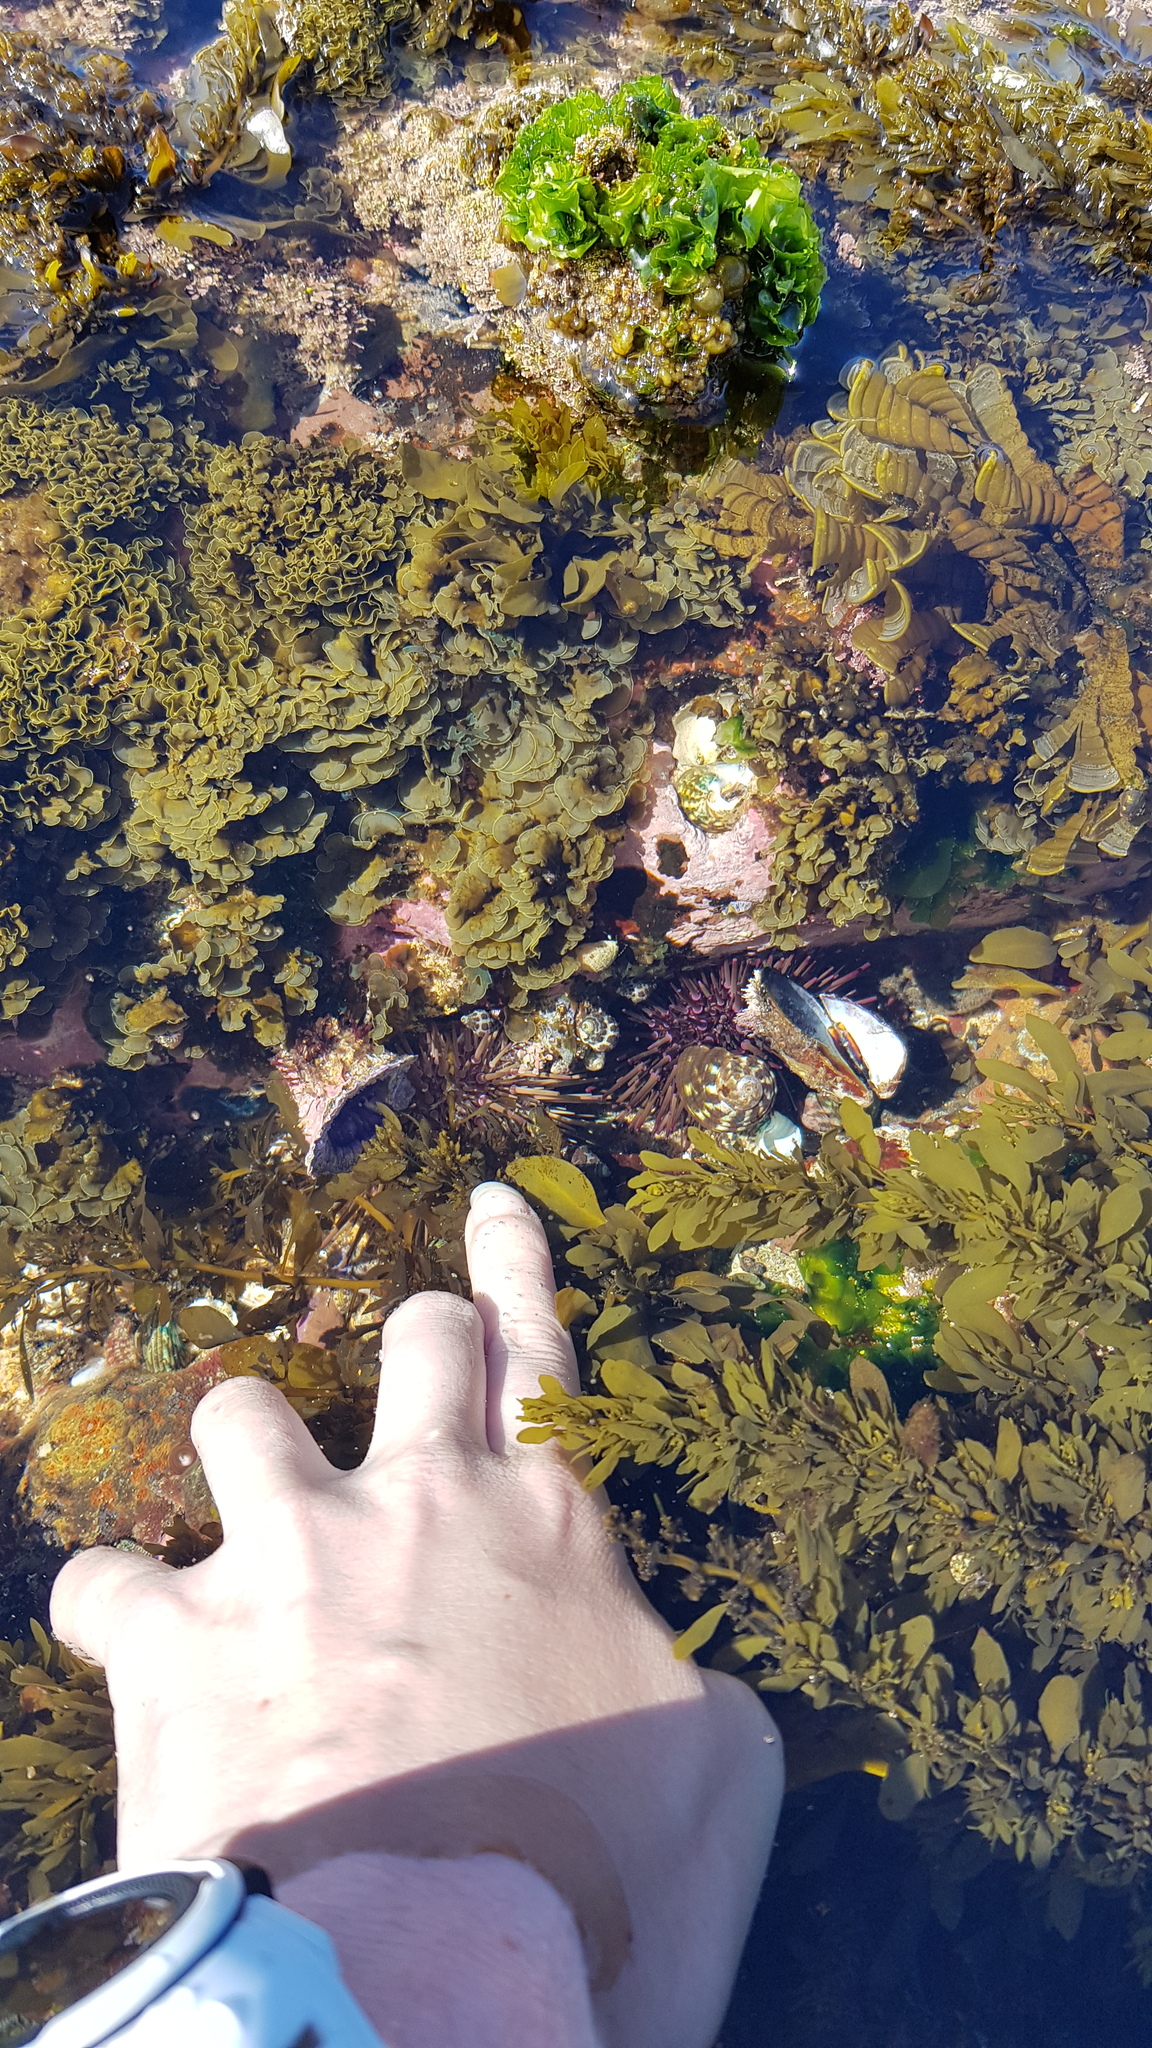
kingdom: Animalia
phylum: Echinodermata
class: Echinoidea
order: Camarodonta
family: Echinometridae
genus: Heliocidaris
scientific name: Heliocidaris erythrogramma
